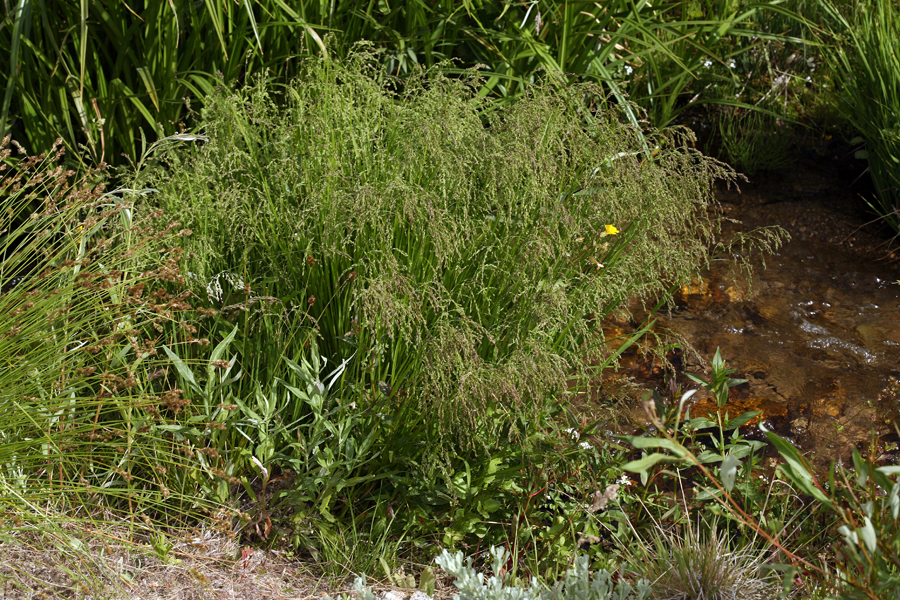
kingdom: Plantae
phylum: Tracheophyta
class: Liliopsida
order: Poales
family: Poaceae
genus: Glyceria
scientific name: Glyceria elata
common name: Tall mannagrass
